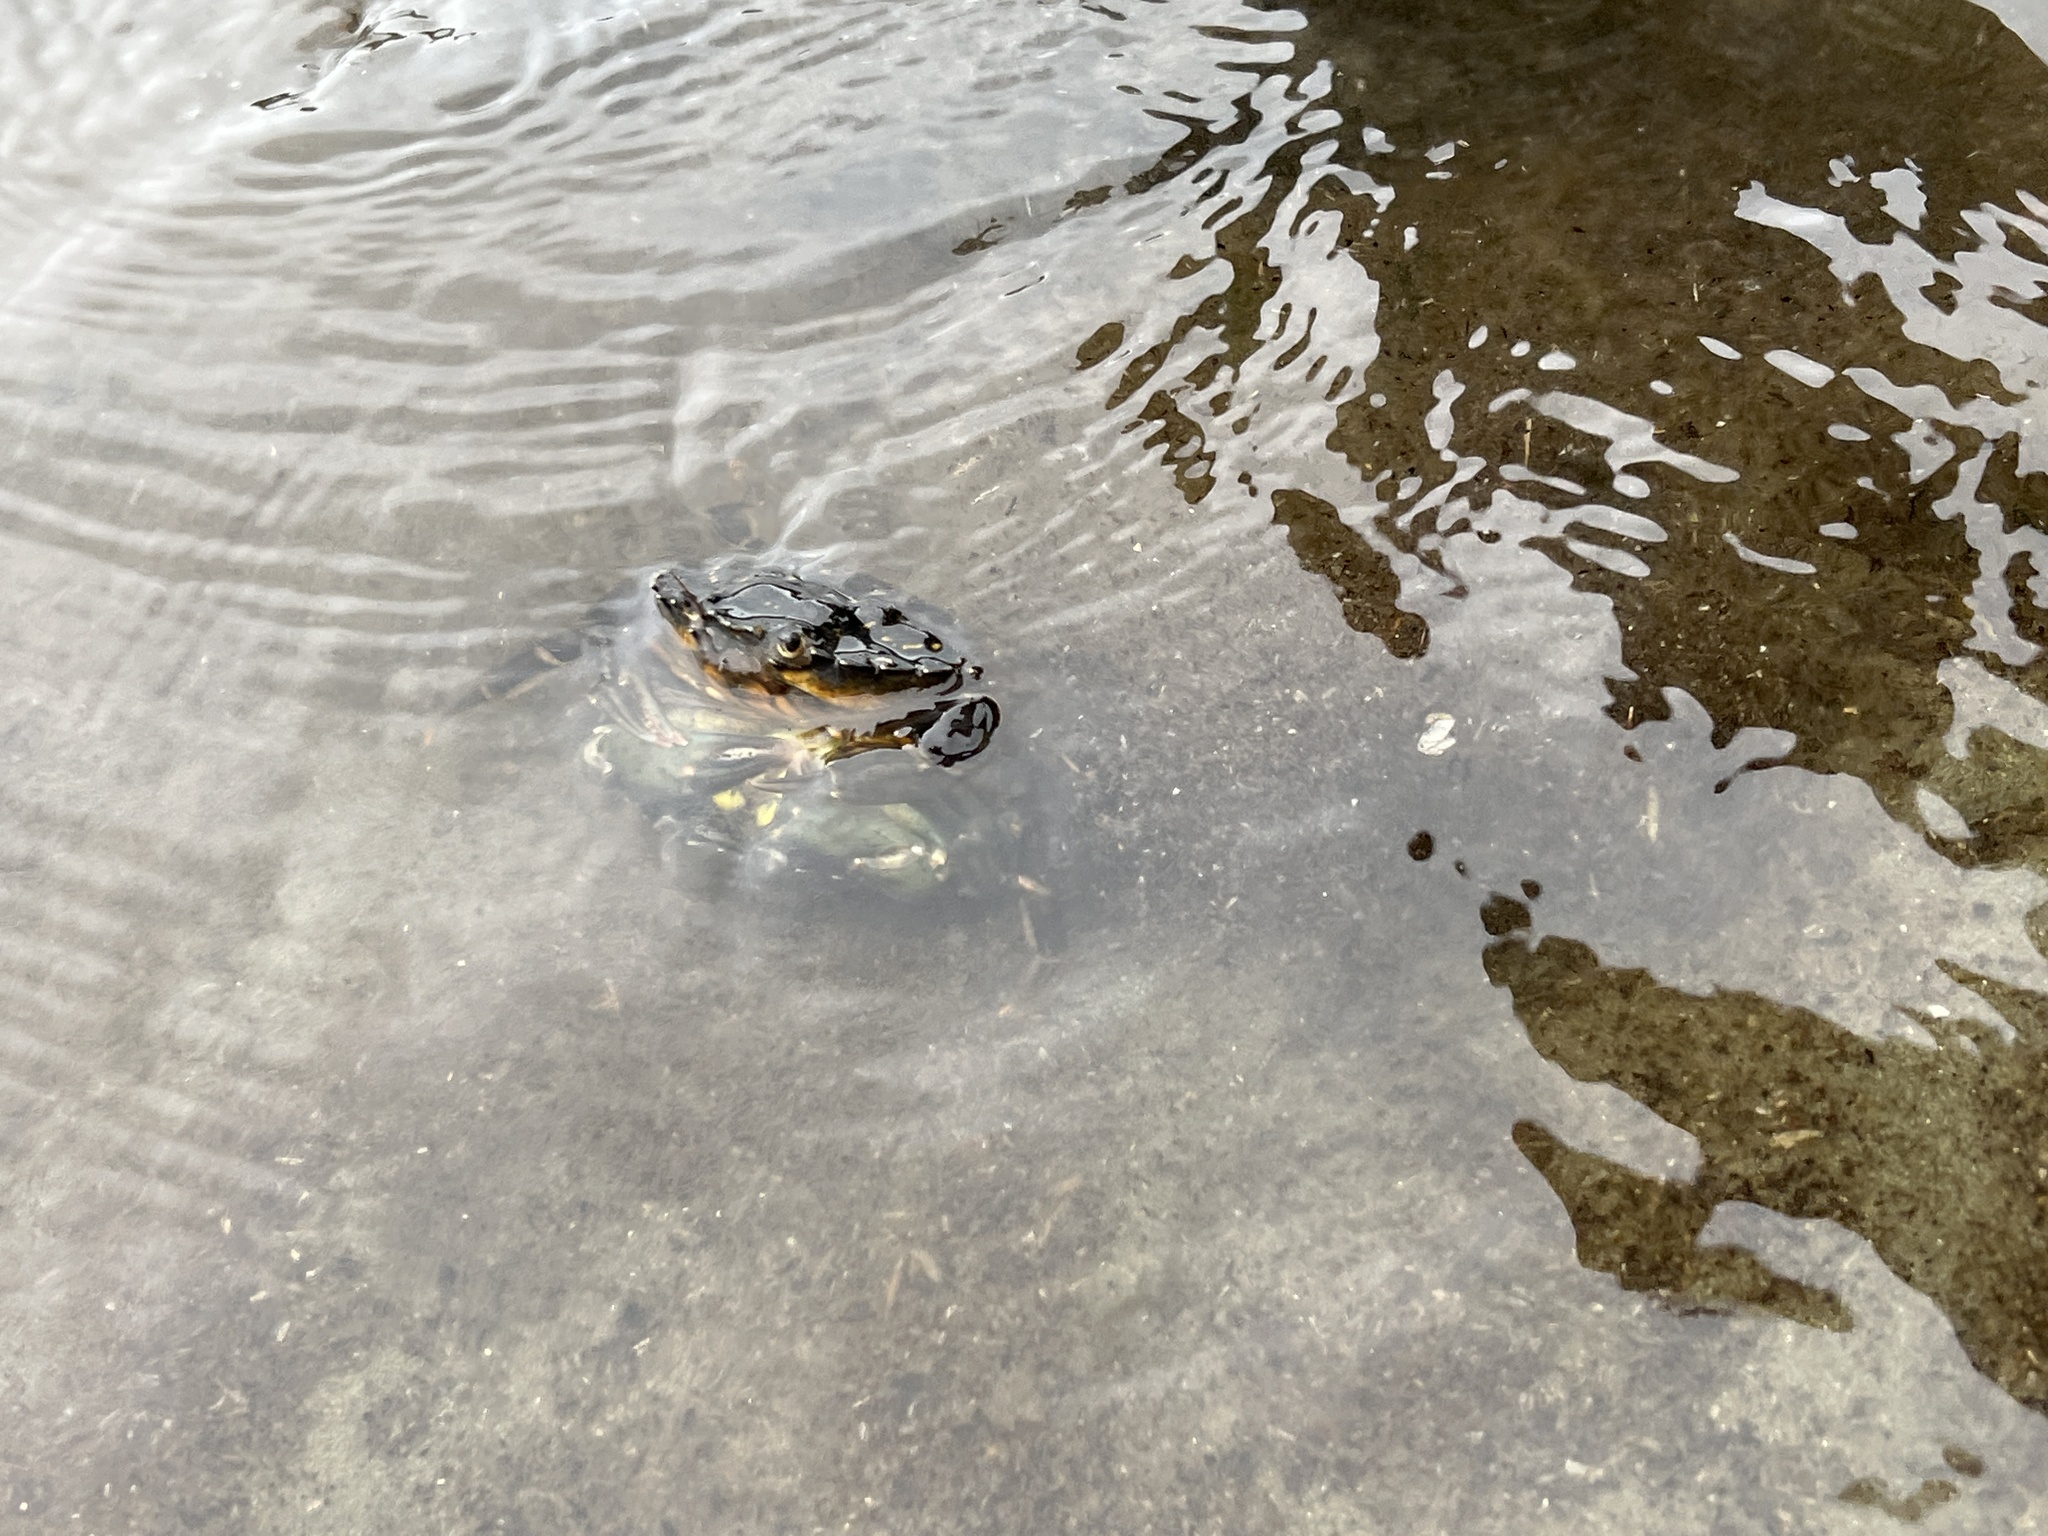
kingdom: Animalia
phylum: Arthropoda
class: Malacostraca
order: Decapoda
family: Carcinidae
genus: Carcinus
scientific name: Carcinus maenas
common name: European green crab
